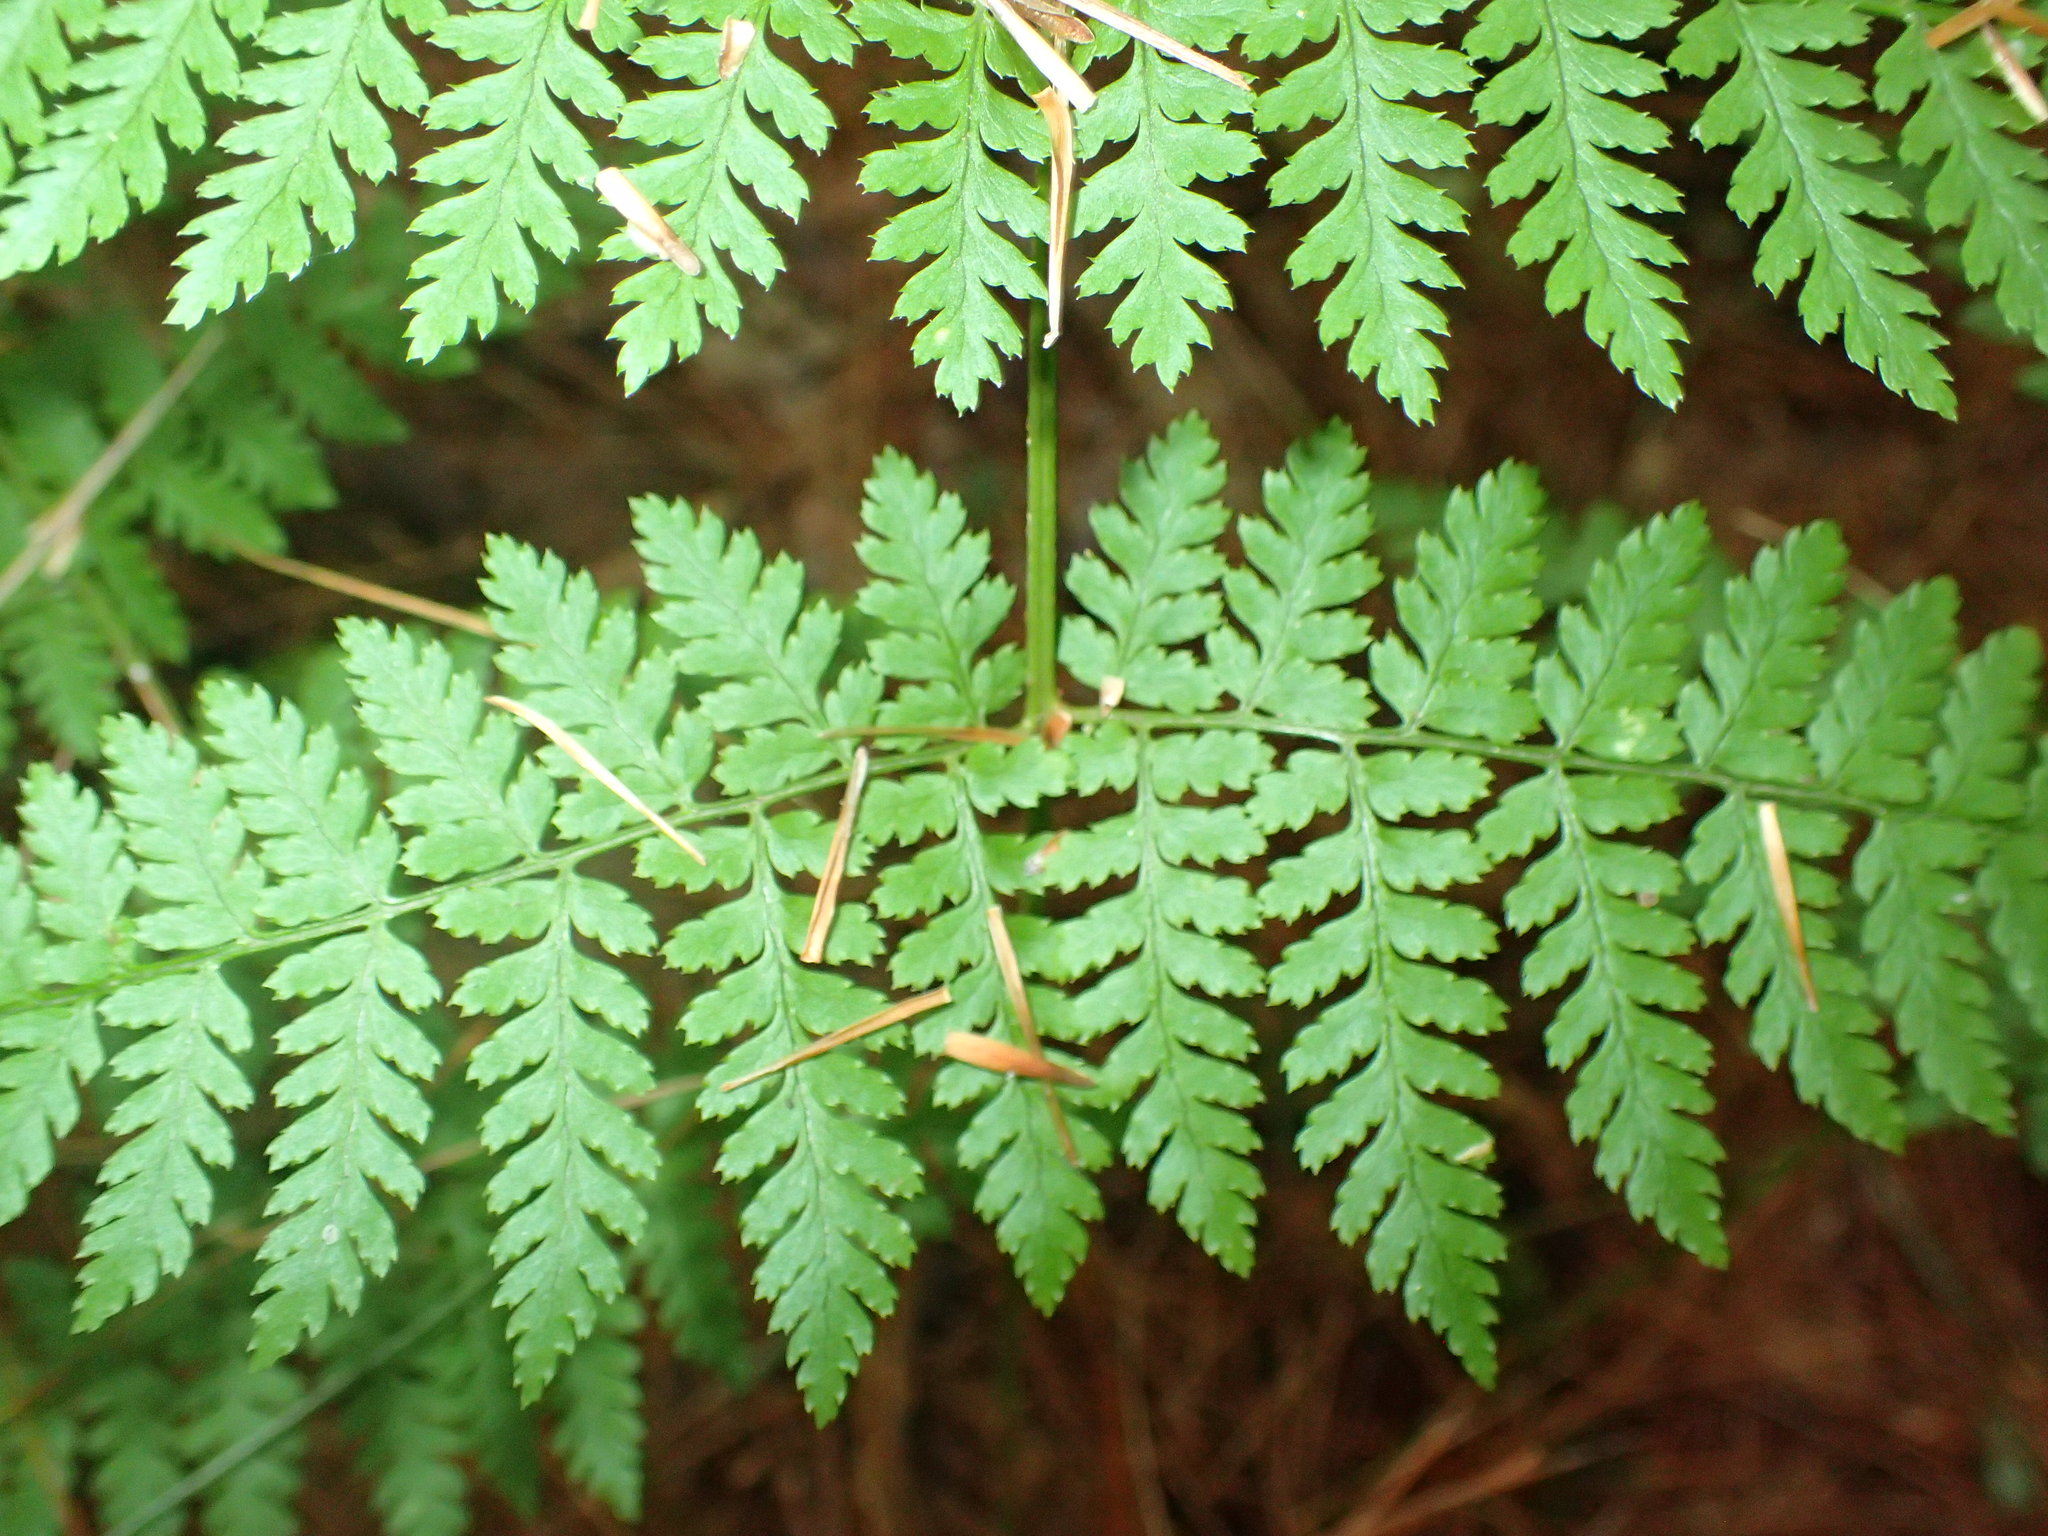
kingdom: Plantae
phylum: Tracheophyta
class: Polypodiopsida
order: Polypodiales
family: Dryopteridaceae
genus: Dryopteris
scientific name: Dryopteris intermedia
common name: Evergreen wood fern
